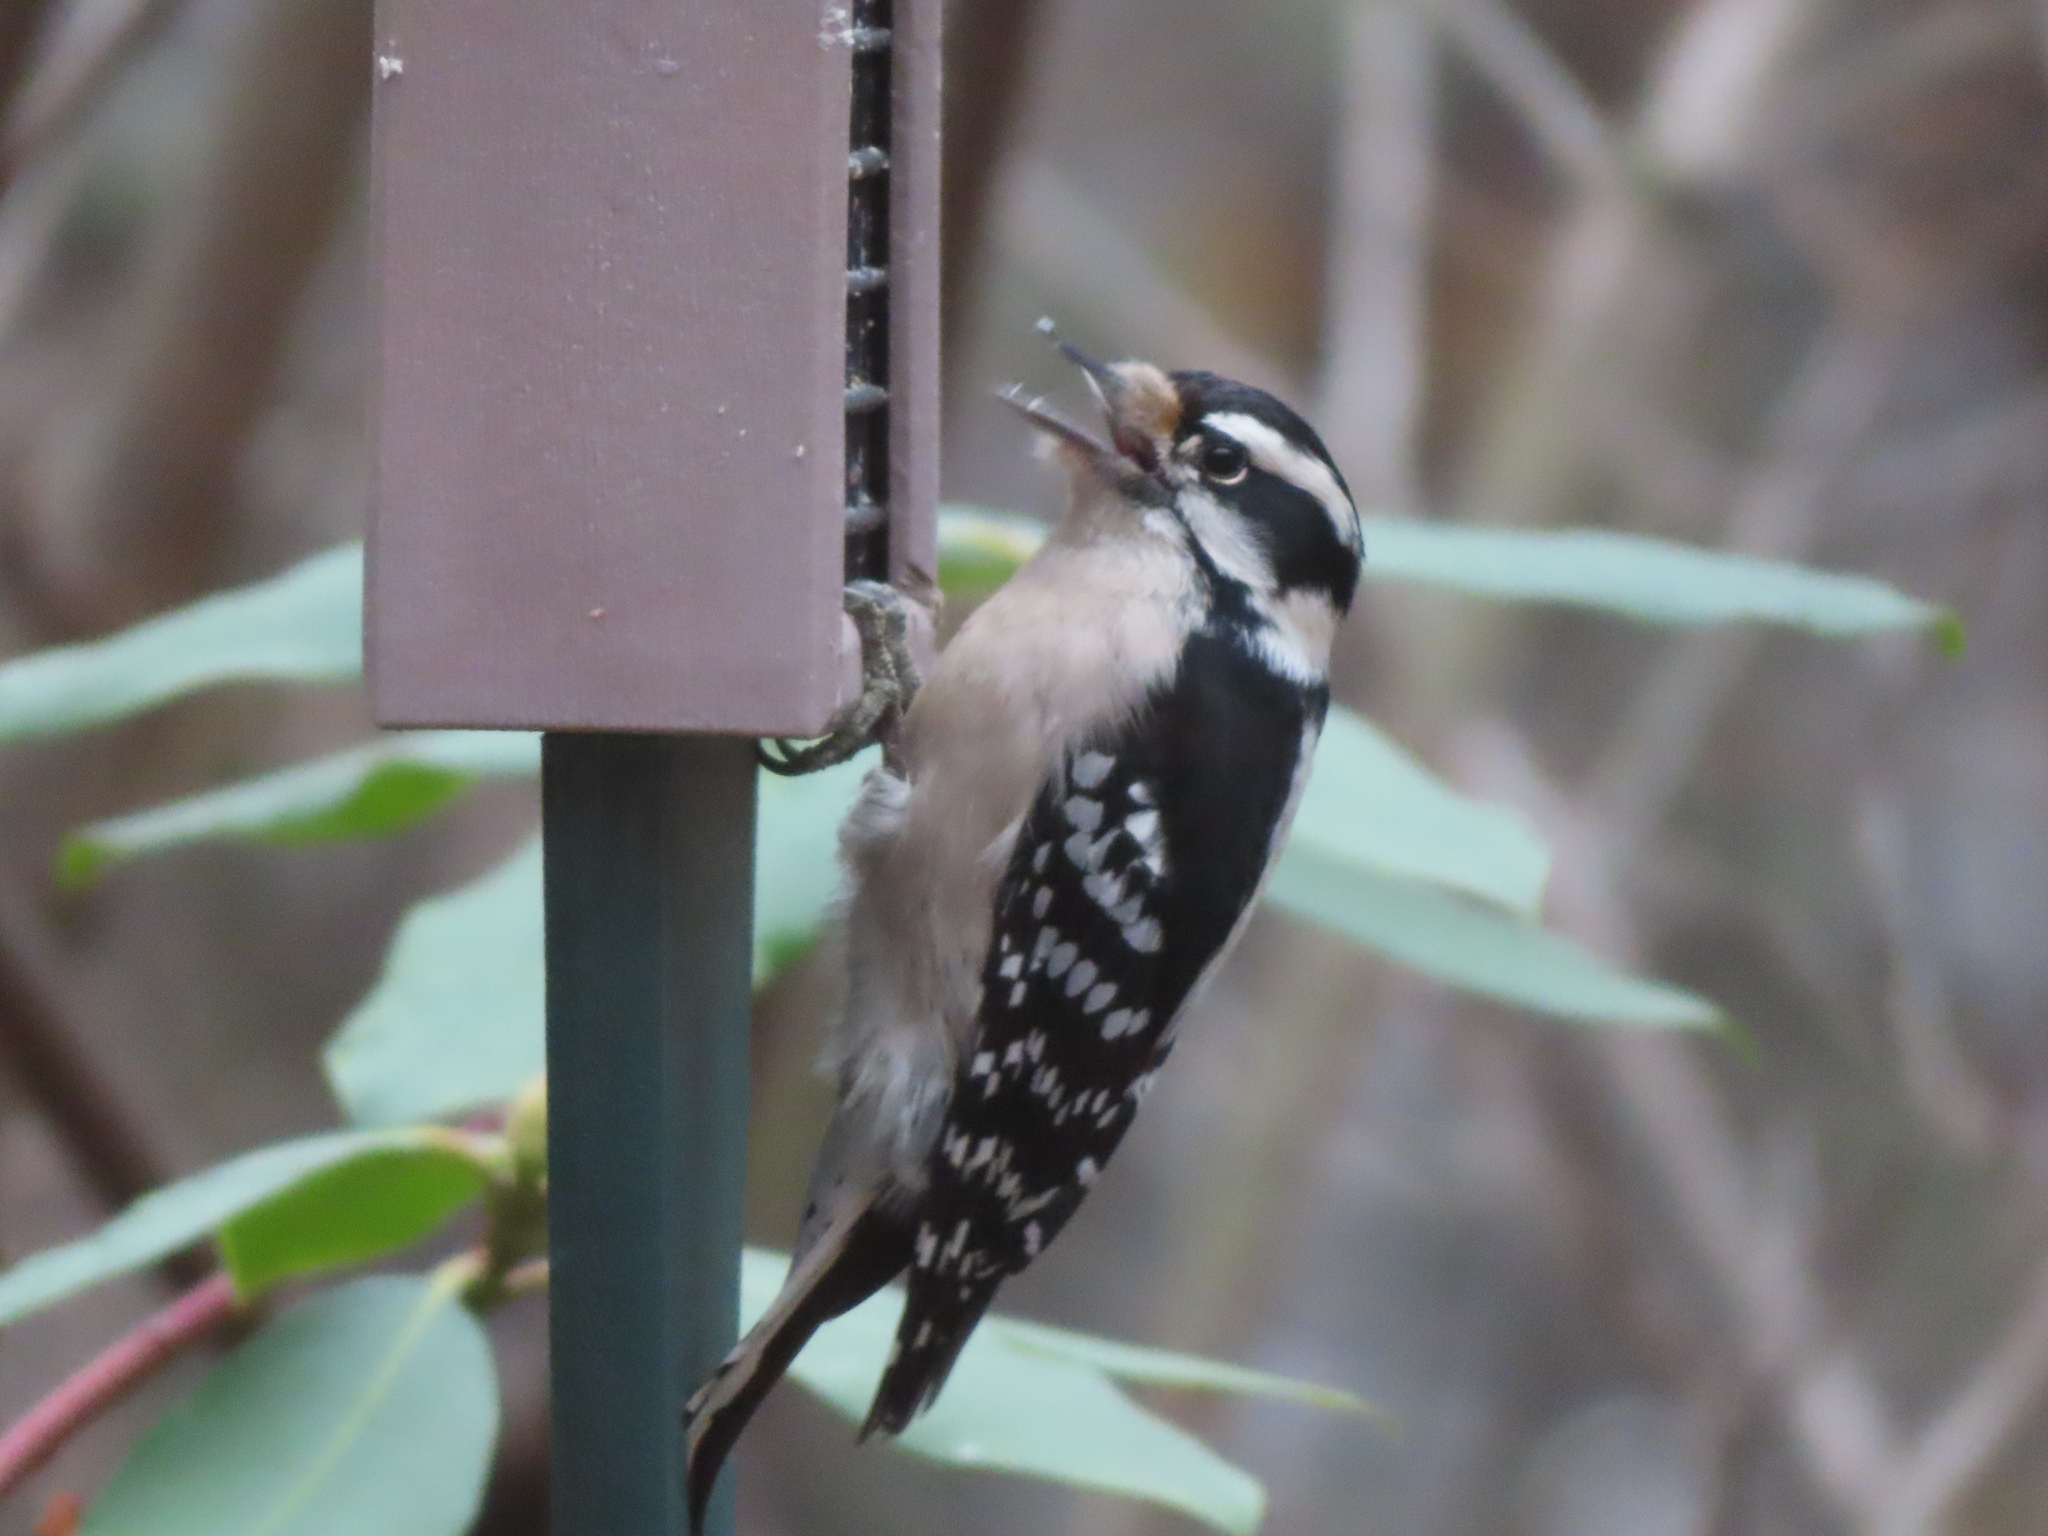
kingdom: Animalia
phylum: Chordata
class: Aves
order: Piciformes
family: Picidae
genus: Dryobates
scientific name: Dryobates pubescens
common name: Downy woodpecker
